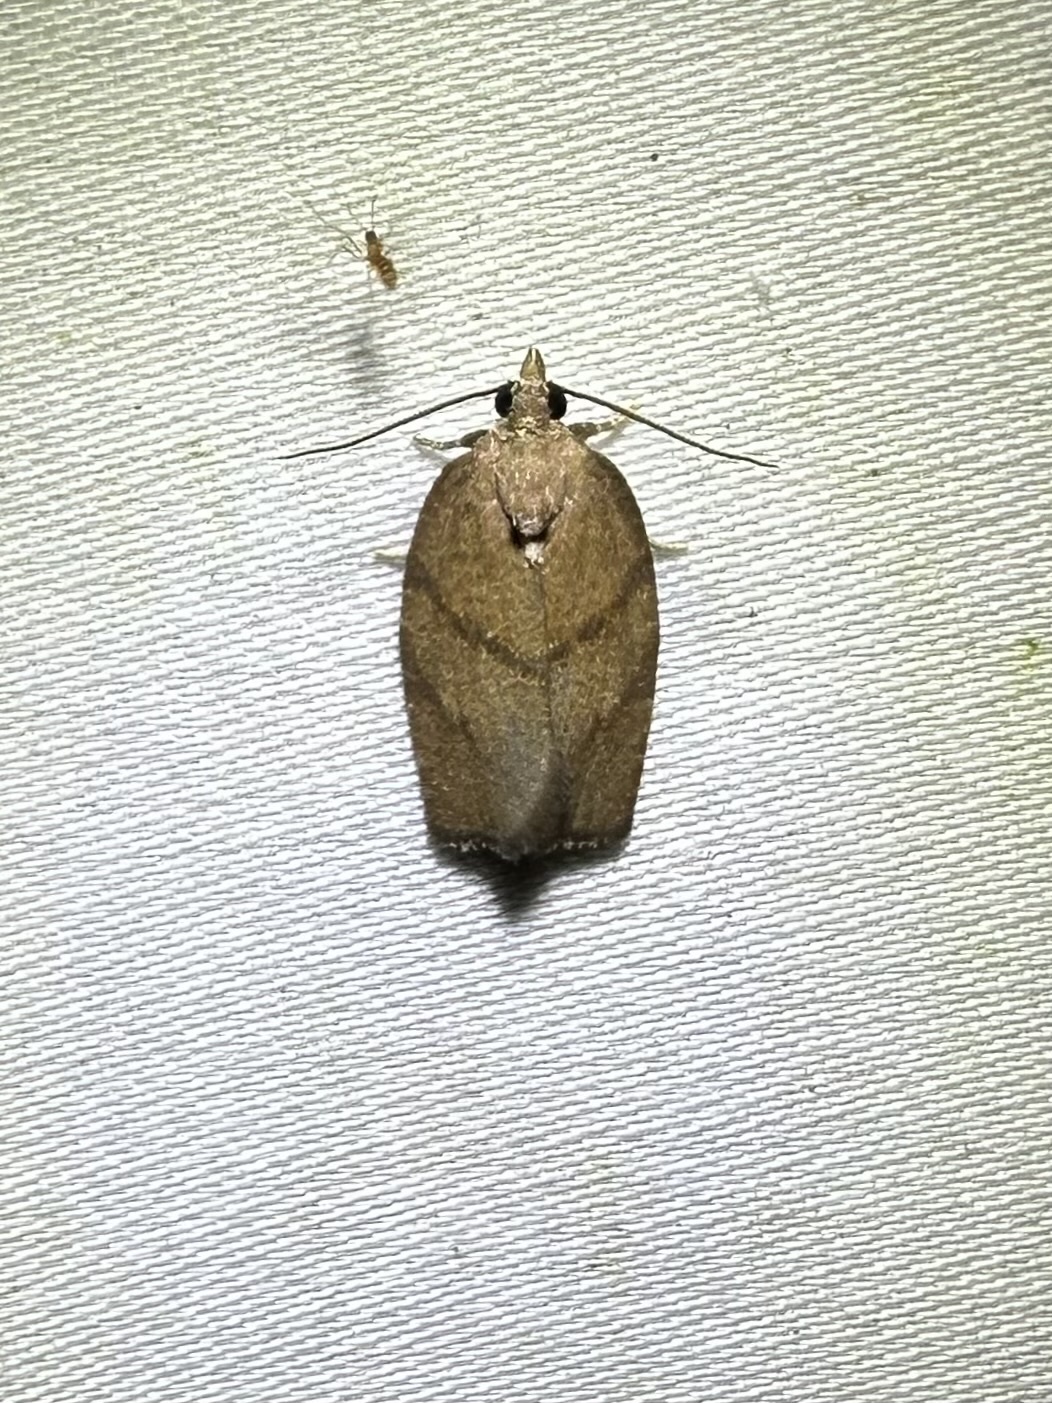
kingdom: Animalia
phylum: Arthropoda
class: Insecta
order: Lepidoptera
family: Tortricidae
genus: Argyrotaenia
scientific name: Argyrotaenia juglandana
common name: Hickory leafroller moth
